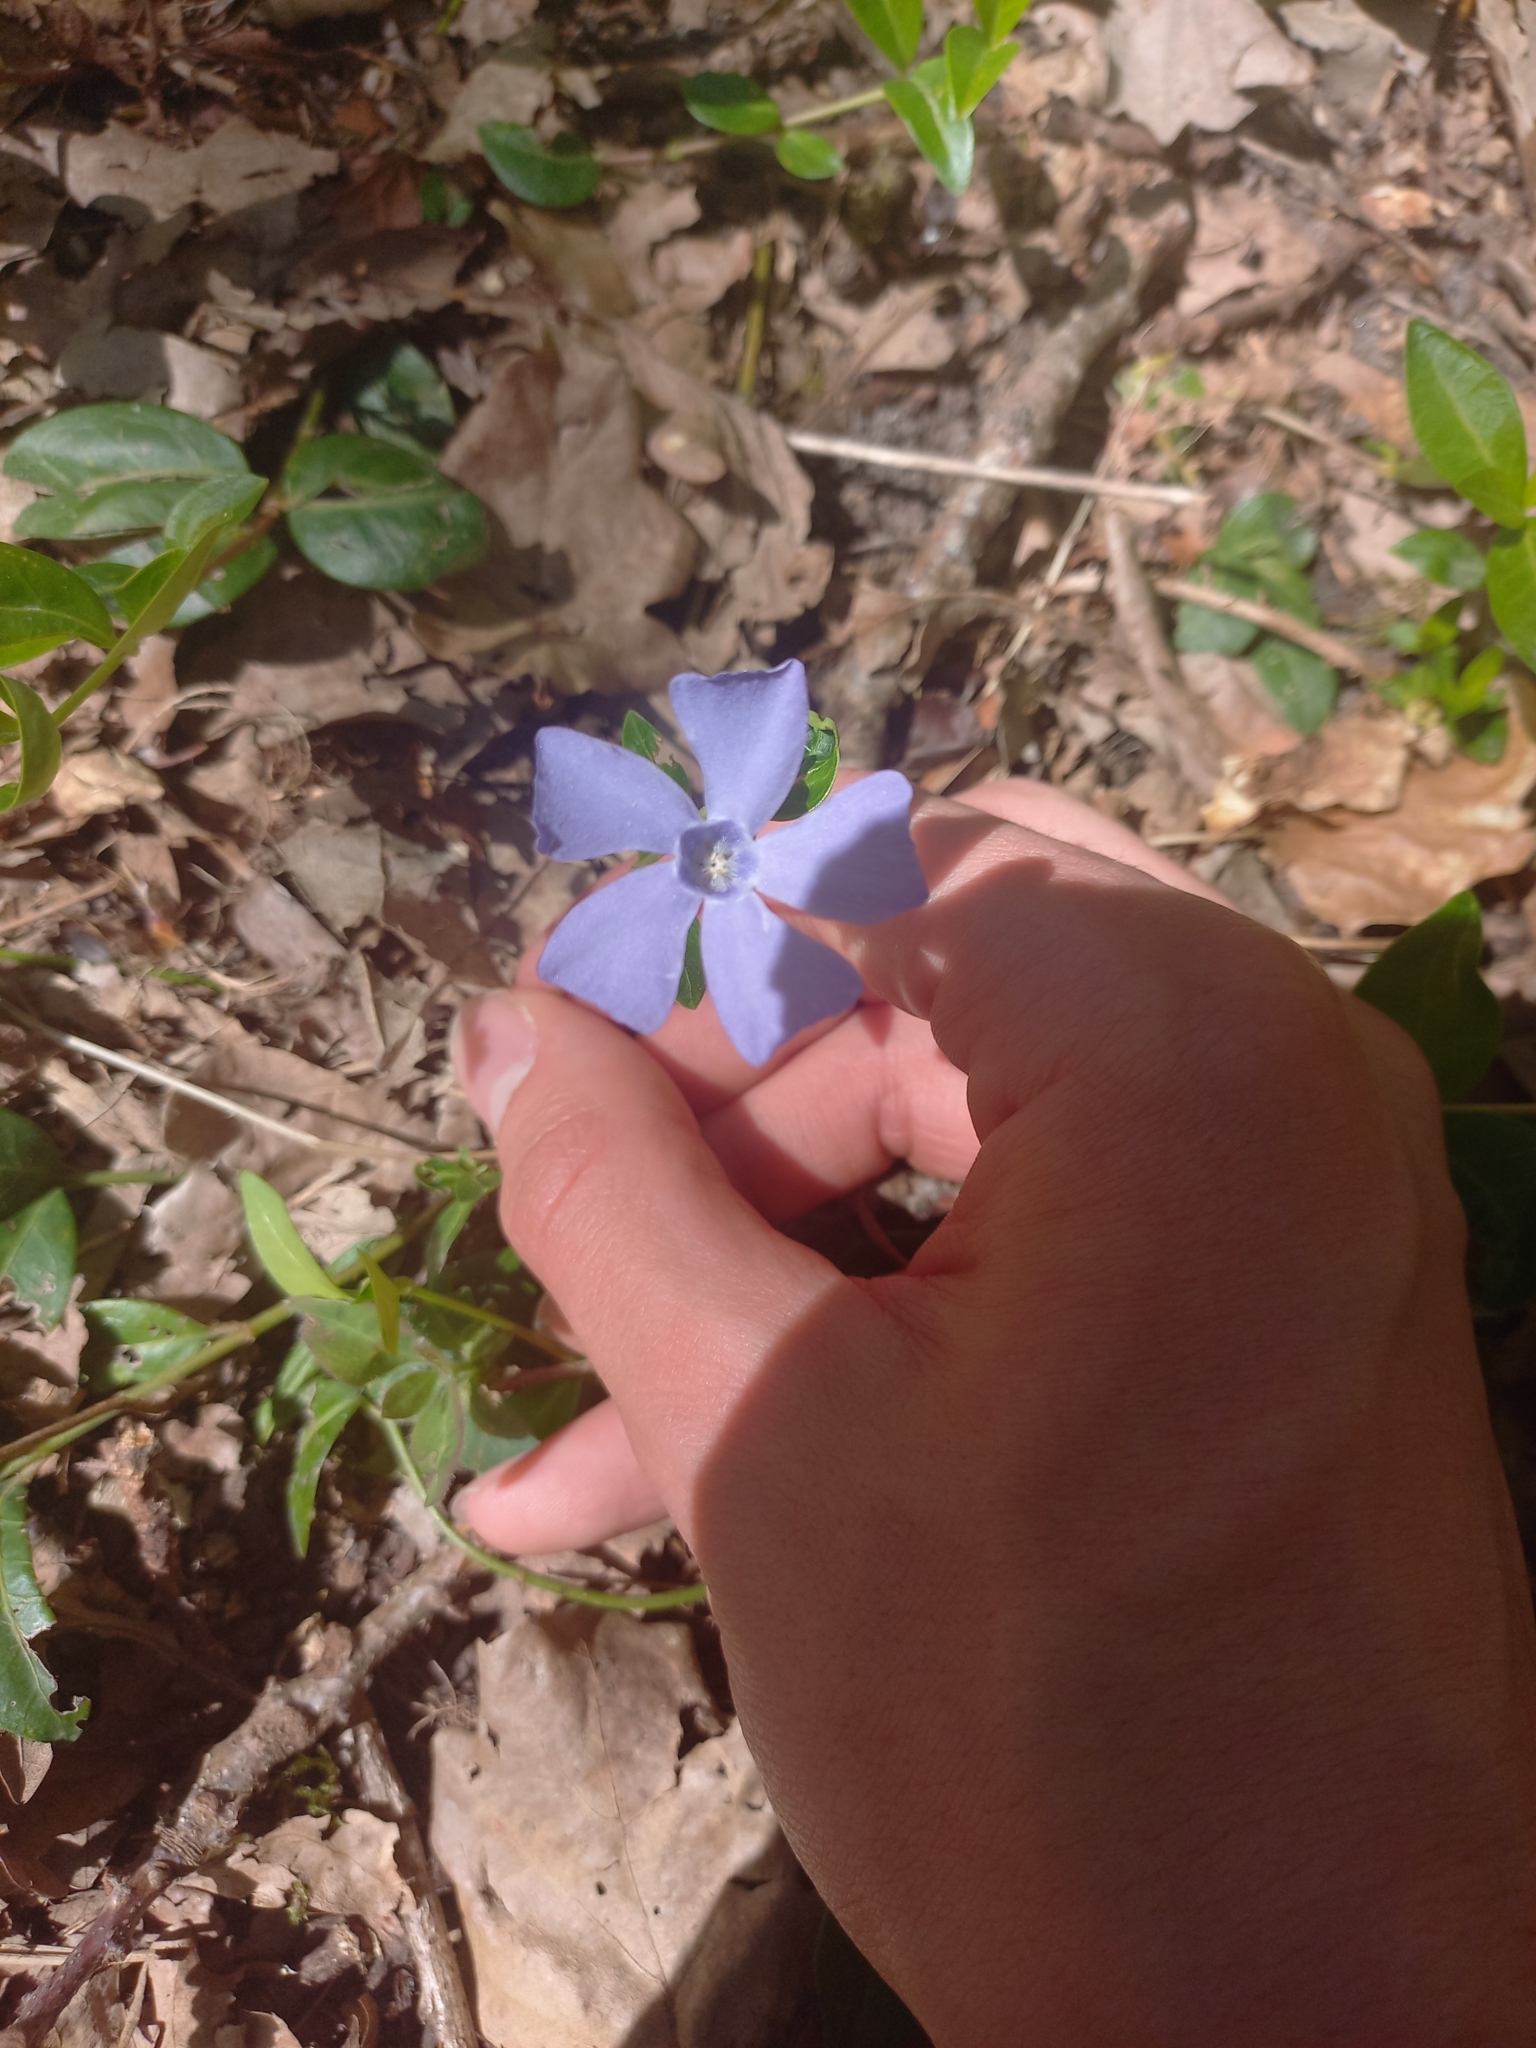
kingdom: Plantae
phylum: Tracheophyta
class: Magnoliopsida
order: Gentianales
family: Apocynaceae
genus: Vinca
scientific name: Vinca minor
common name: Lesser periwinkle
